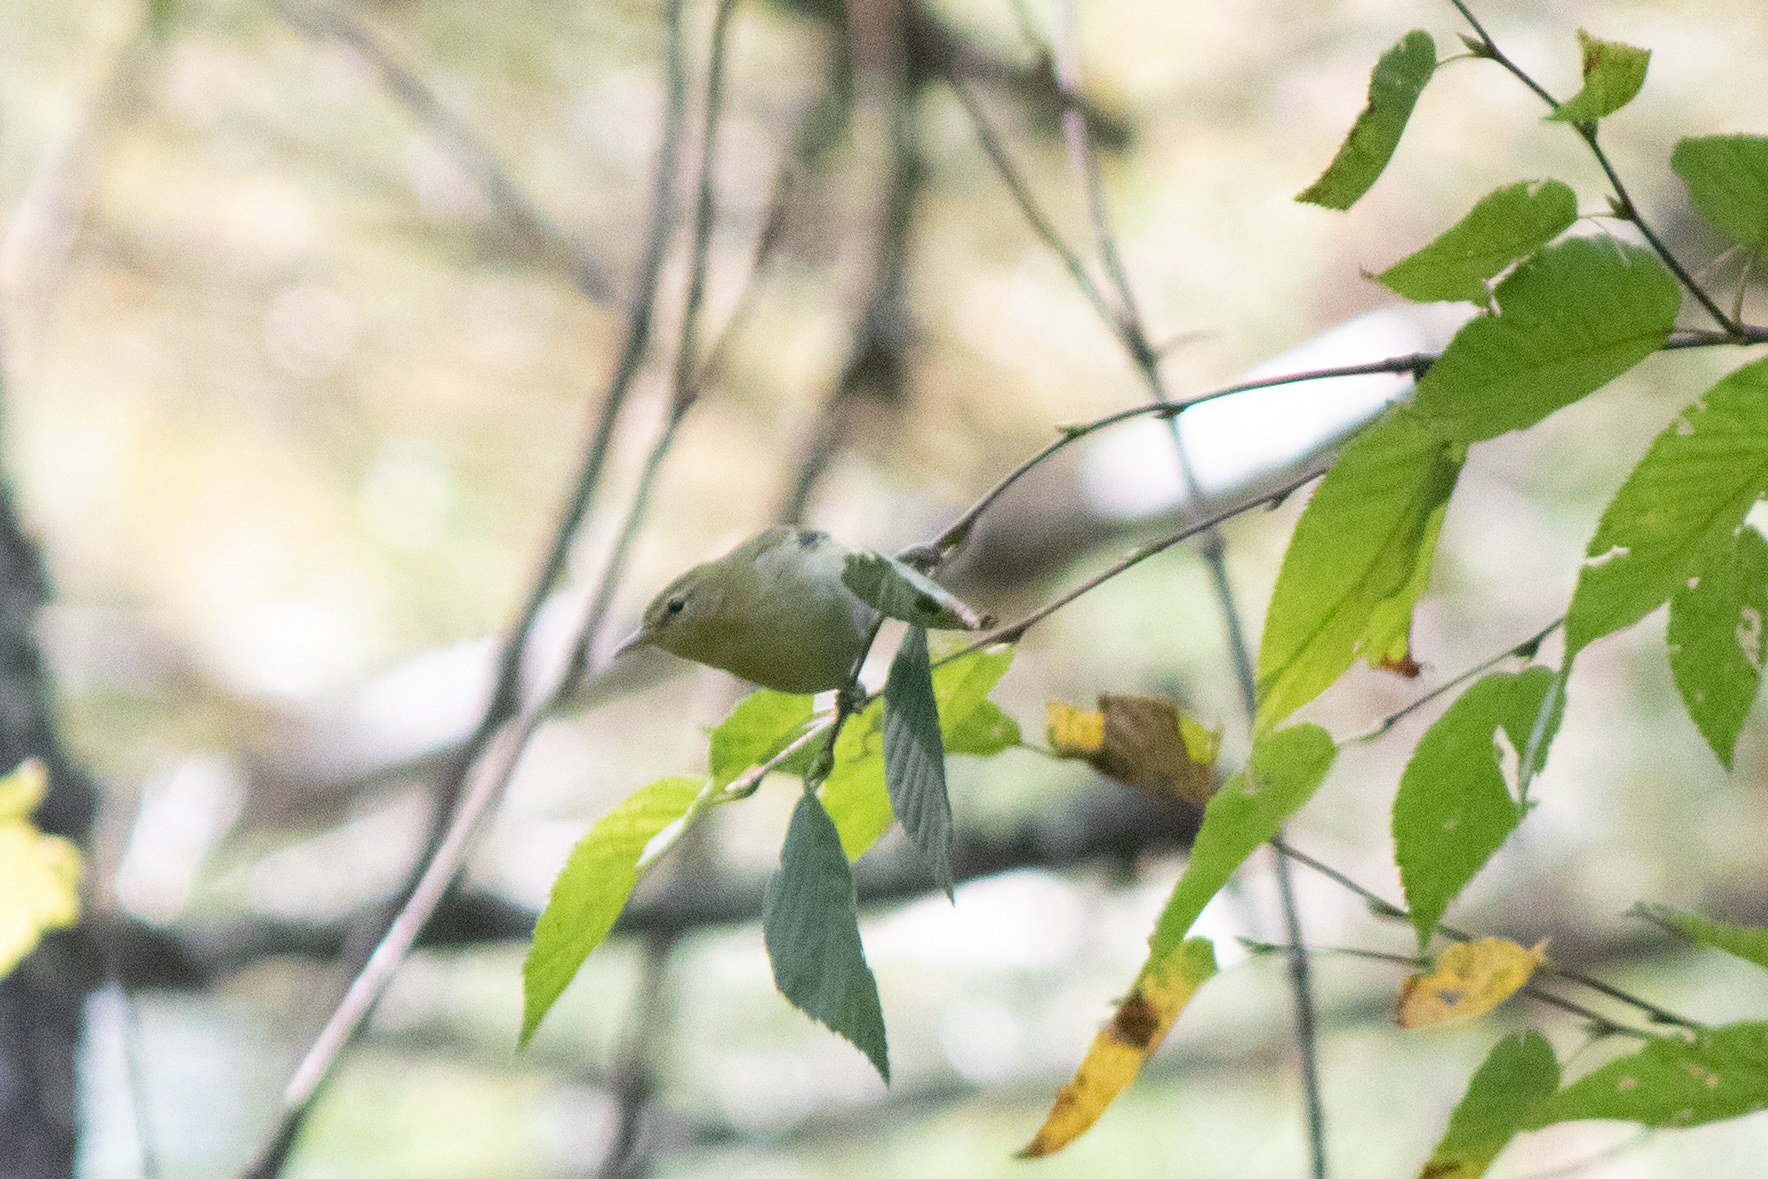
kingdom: Animalia
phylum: Chordata
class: Aves
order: Passeriformes
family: Parulidae
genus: Leiothlypis
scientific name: Leiothlypis peregrina
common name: Tennessee warbler
